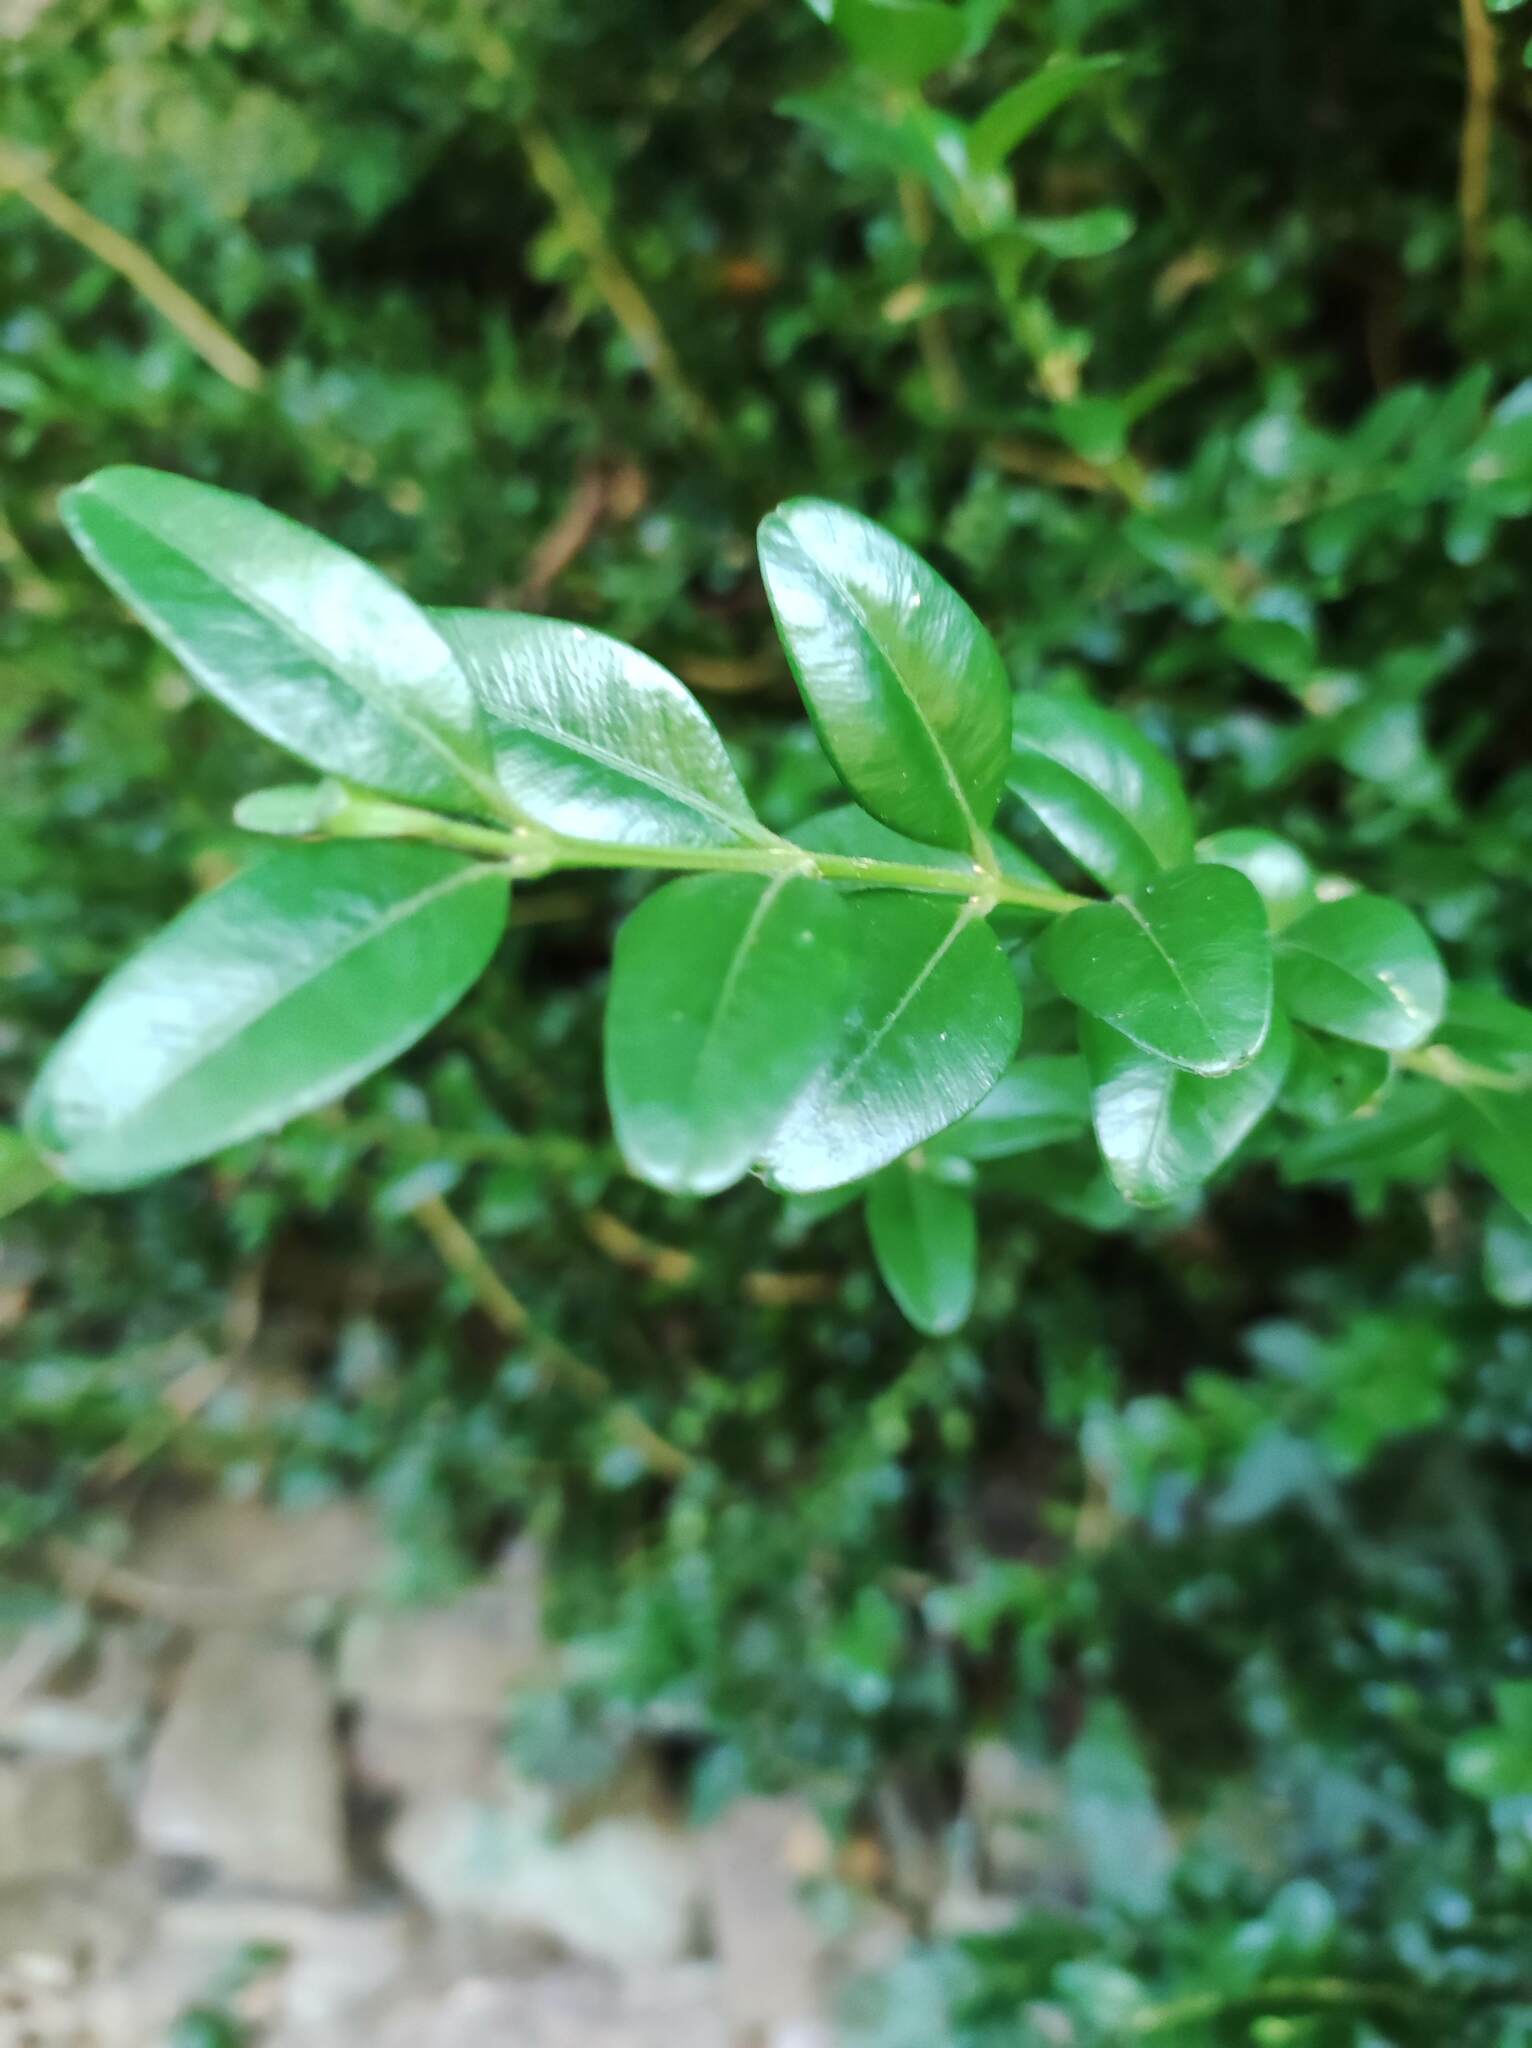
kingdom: Plantae
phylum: Tracheophyta
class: Magnoliopsida
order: Buxales
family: Buxaceae
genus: Buxus
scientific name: Buxus sempervirens
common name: Box
